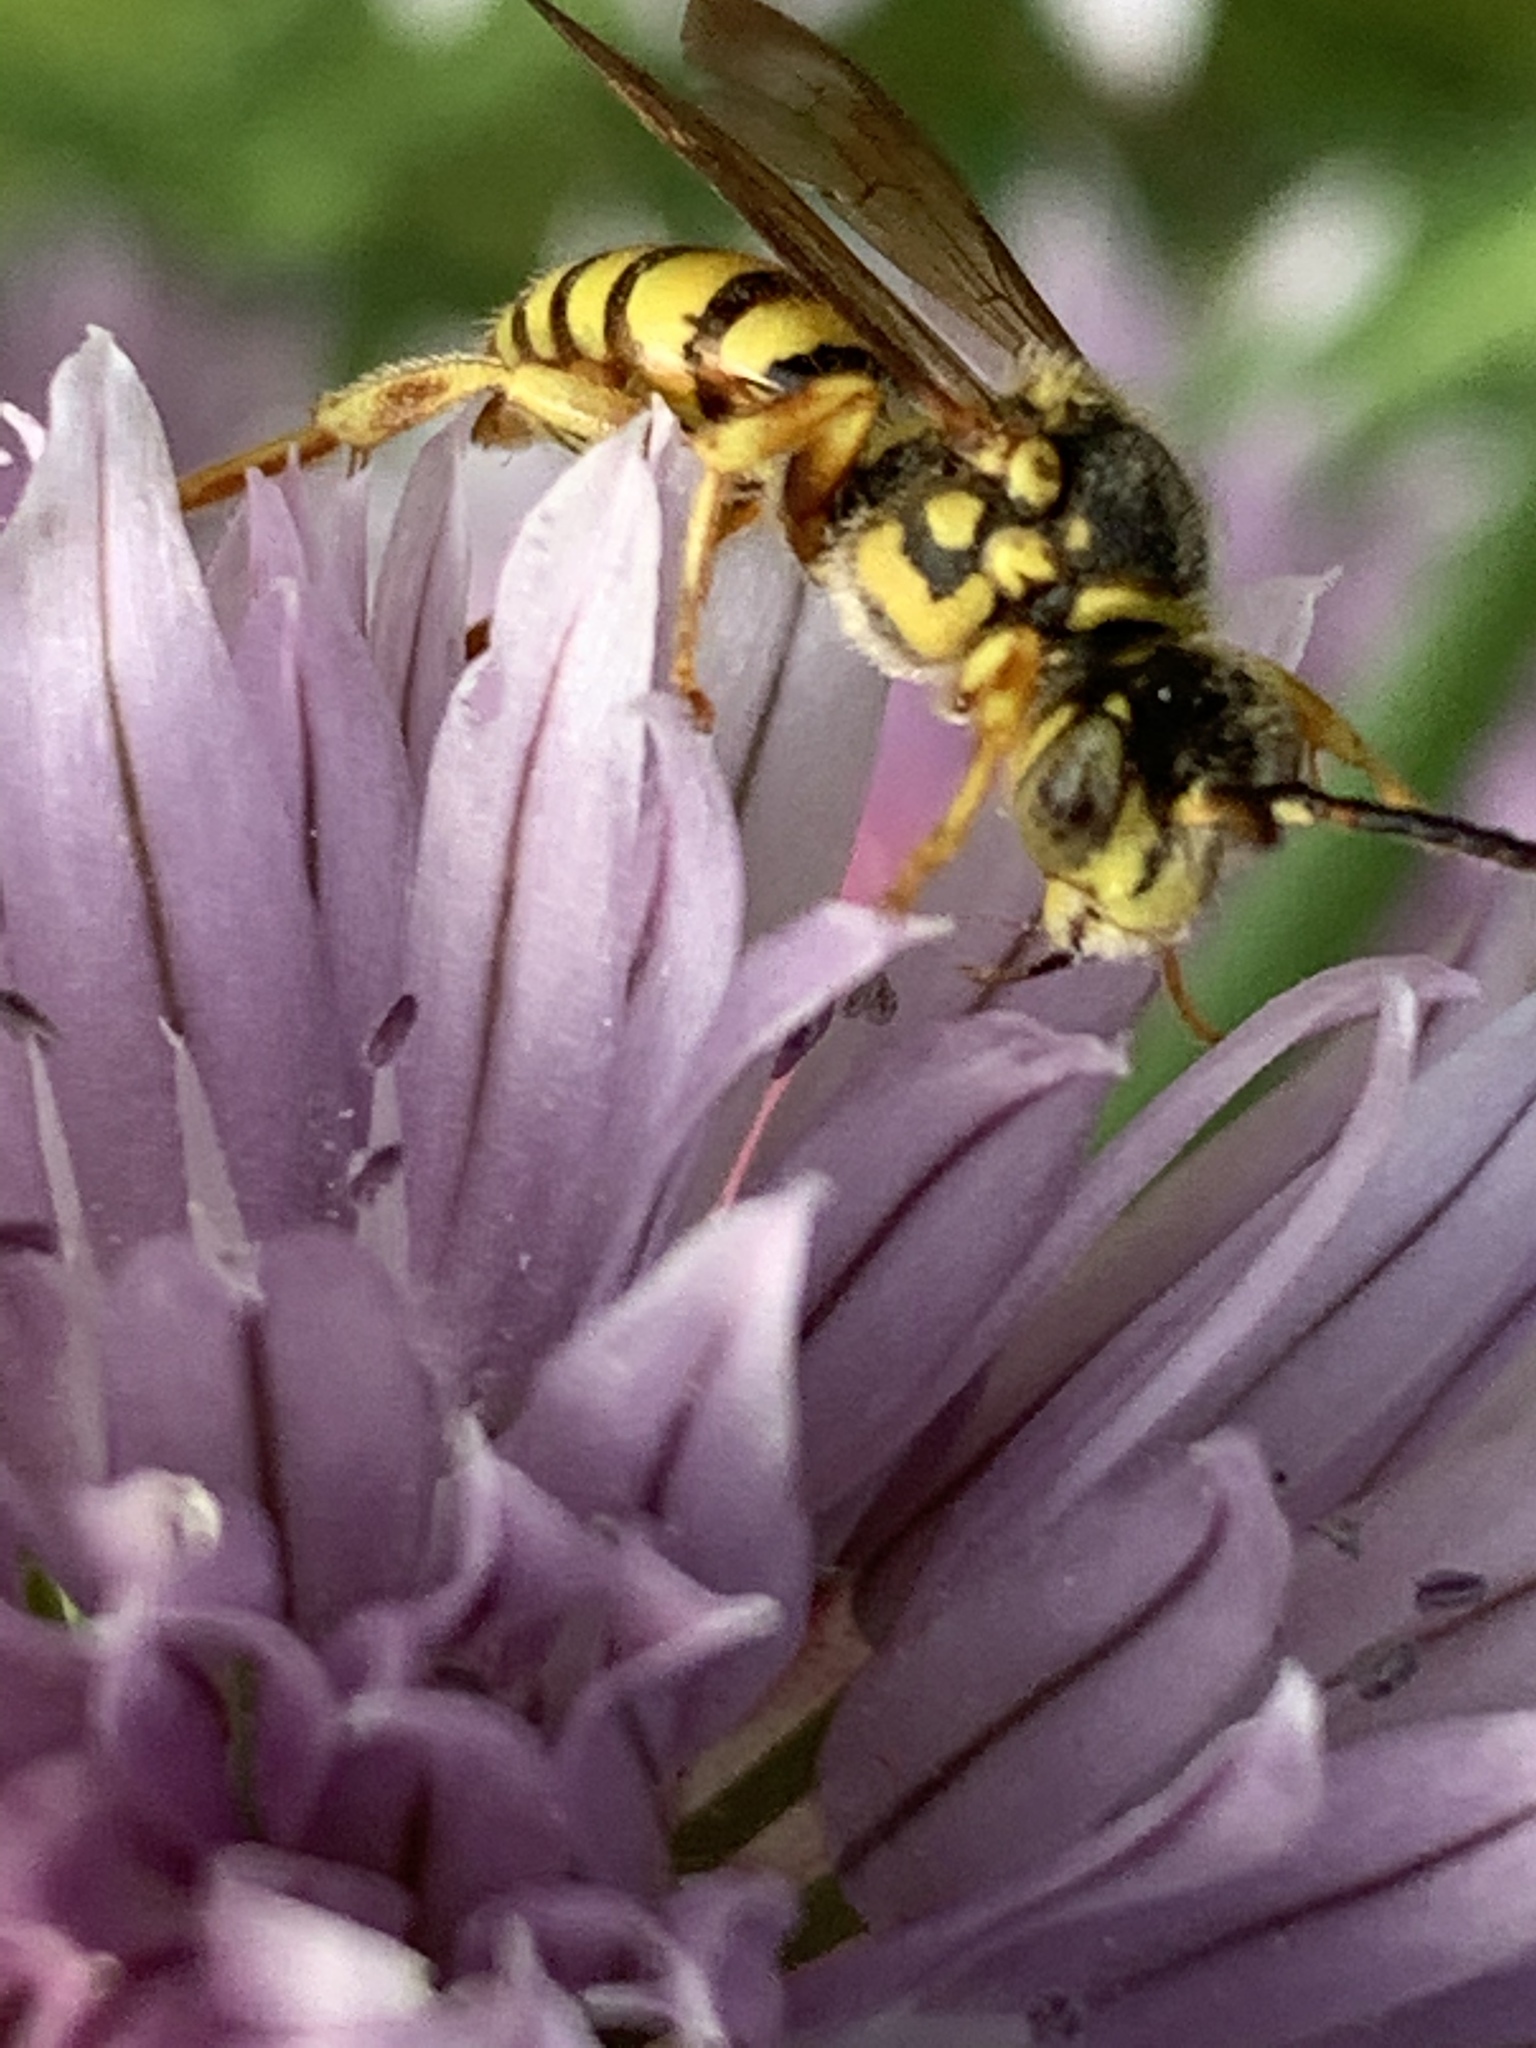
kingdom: Animalia
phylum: Arthropoda
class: Insecta
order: Hymenoptera
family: Apidae
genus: Nomada
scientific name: Nomada
